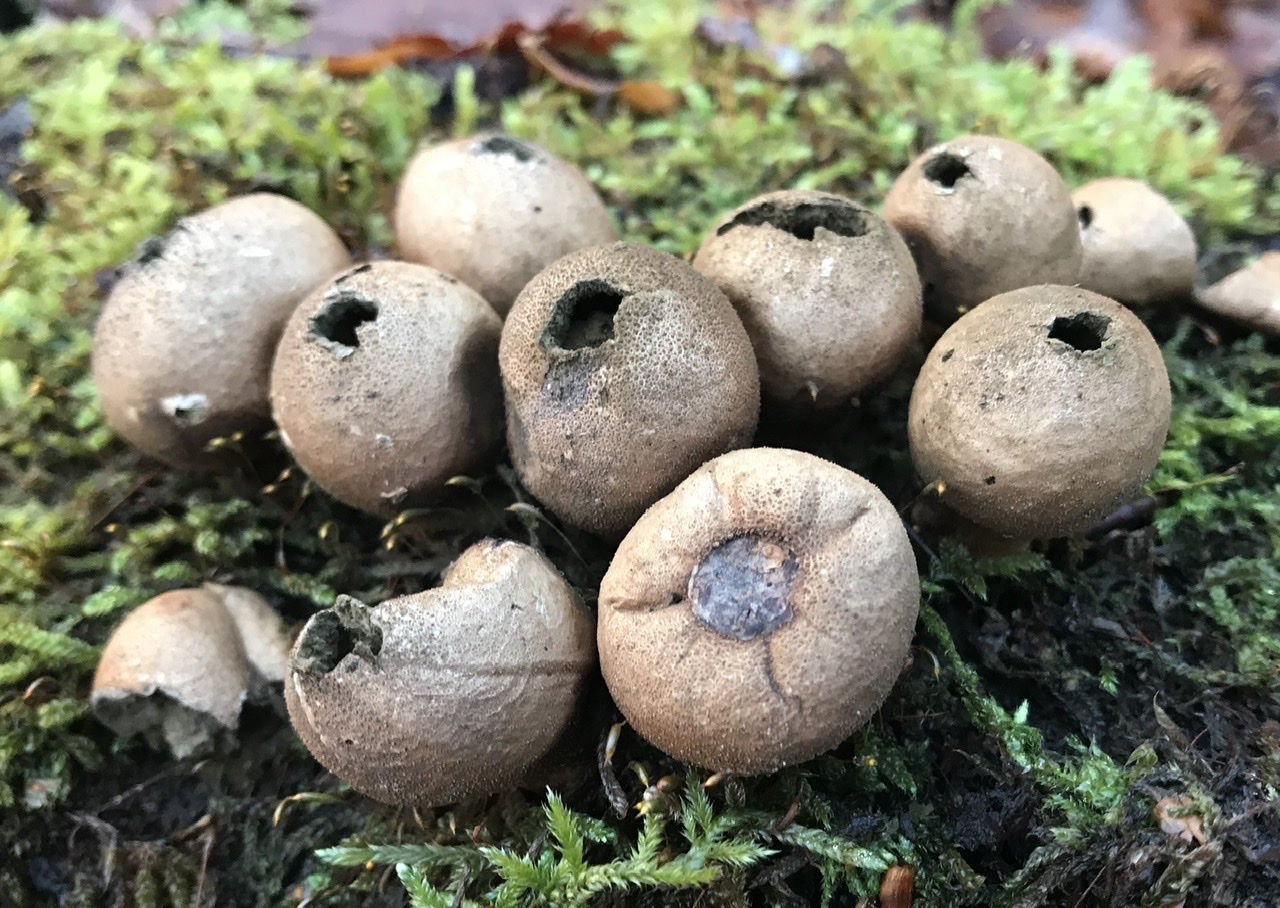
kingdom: Fungi
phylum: Basidiomycota
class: Agaricomycetes
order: Agaricales
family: Lycoperdaceae
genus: Apioperdon
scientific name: Apioperdon pyriforme
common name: Pear-shaped puffball
